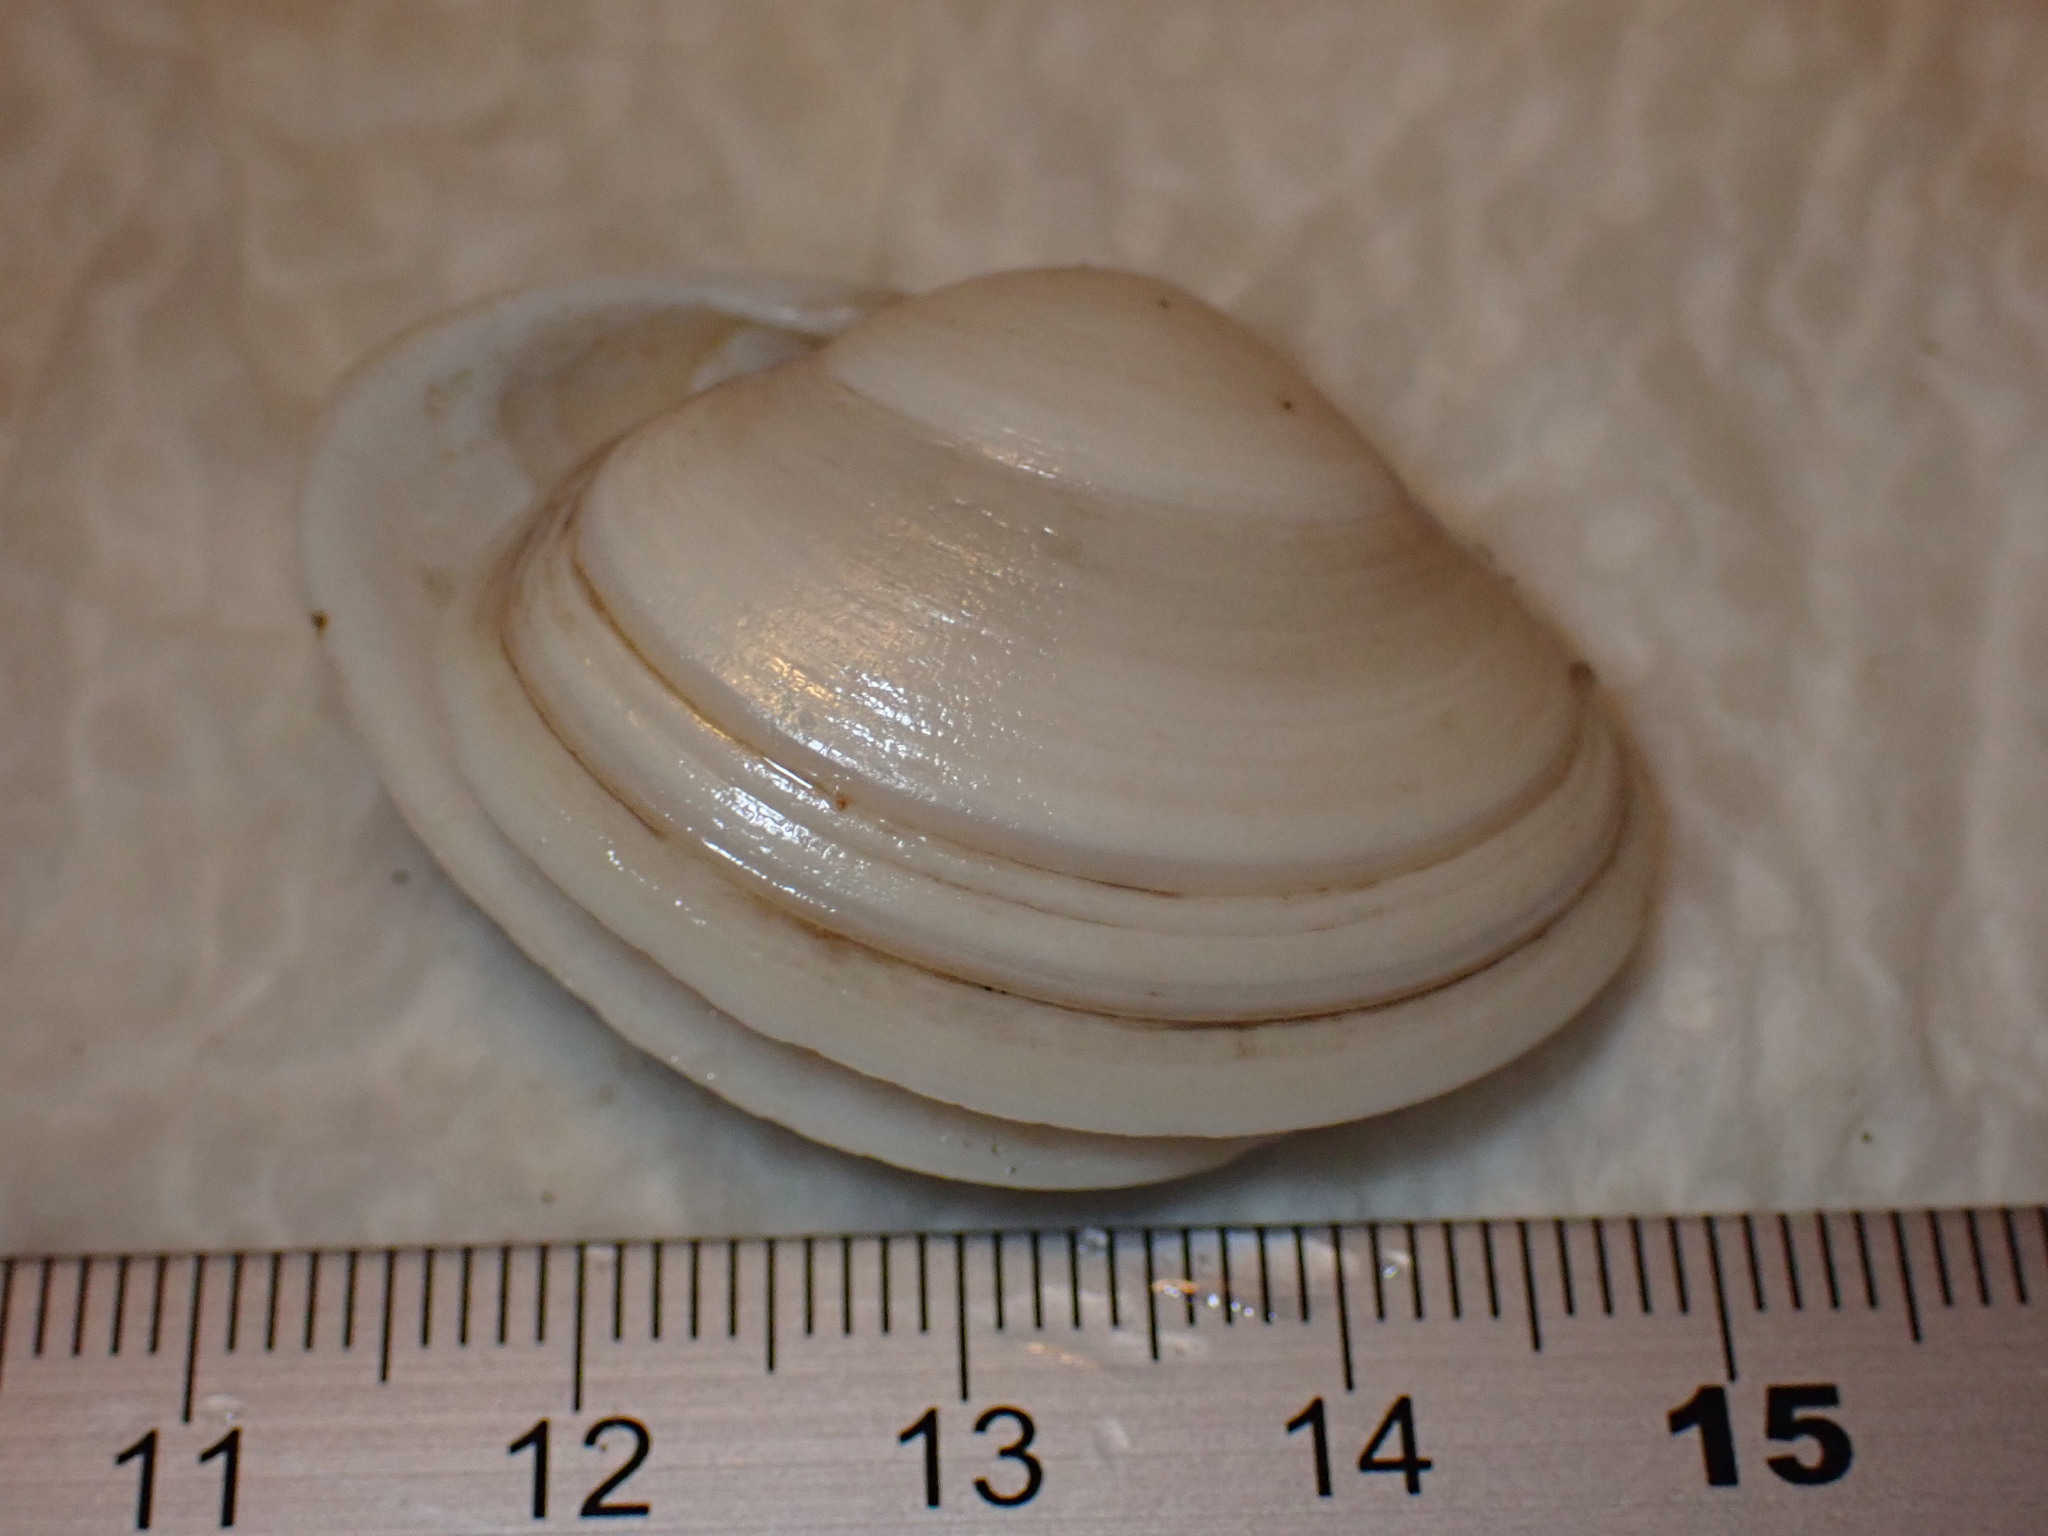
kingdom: Animalia
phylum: Mollusca
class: Bivalvia
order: Venerida
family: Mactridae
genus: Spisula
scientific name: Spisula solida
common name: Thick trough shell
